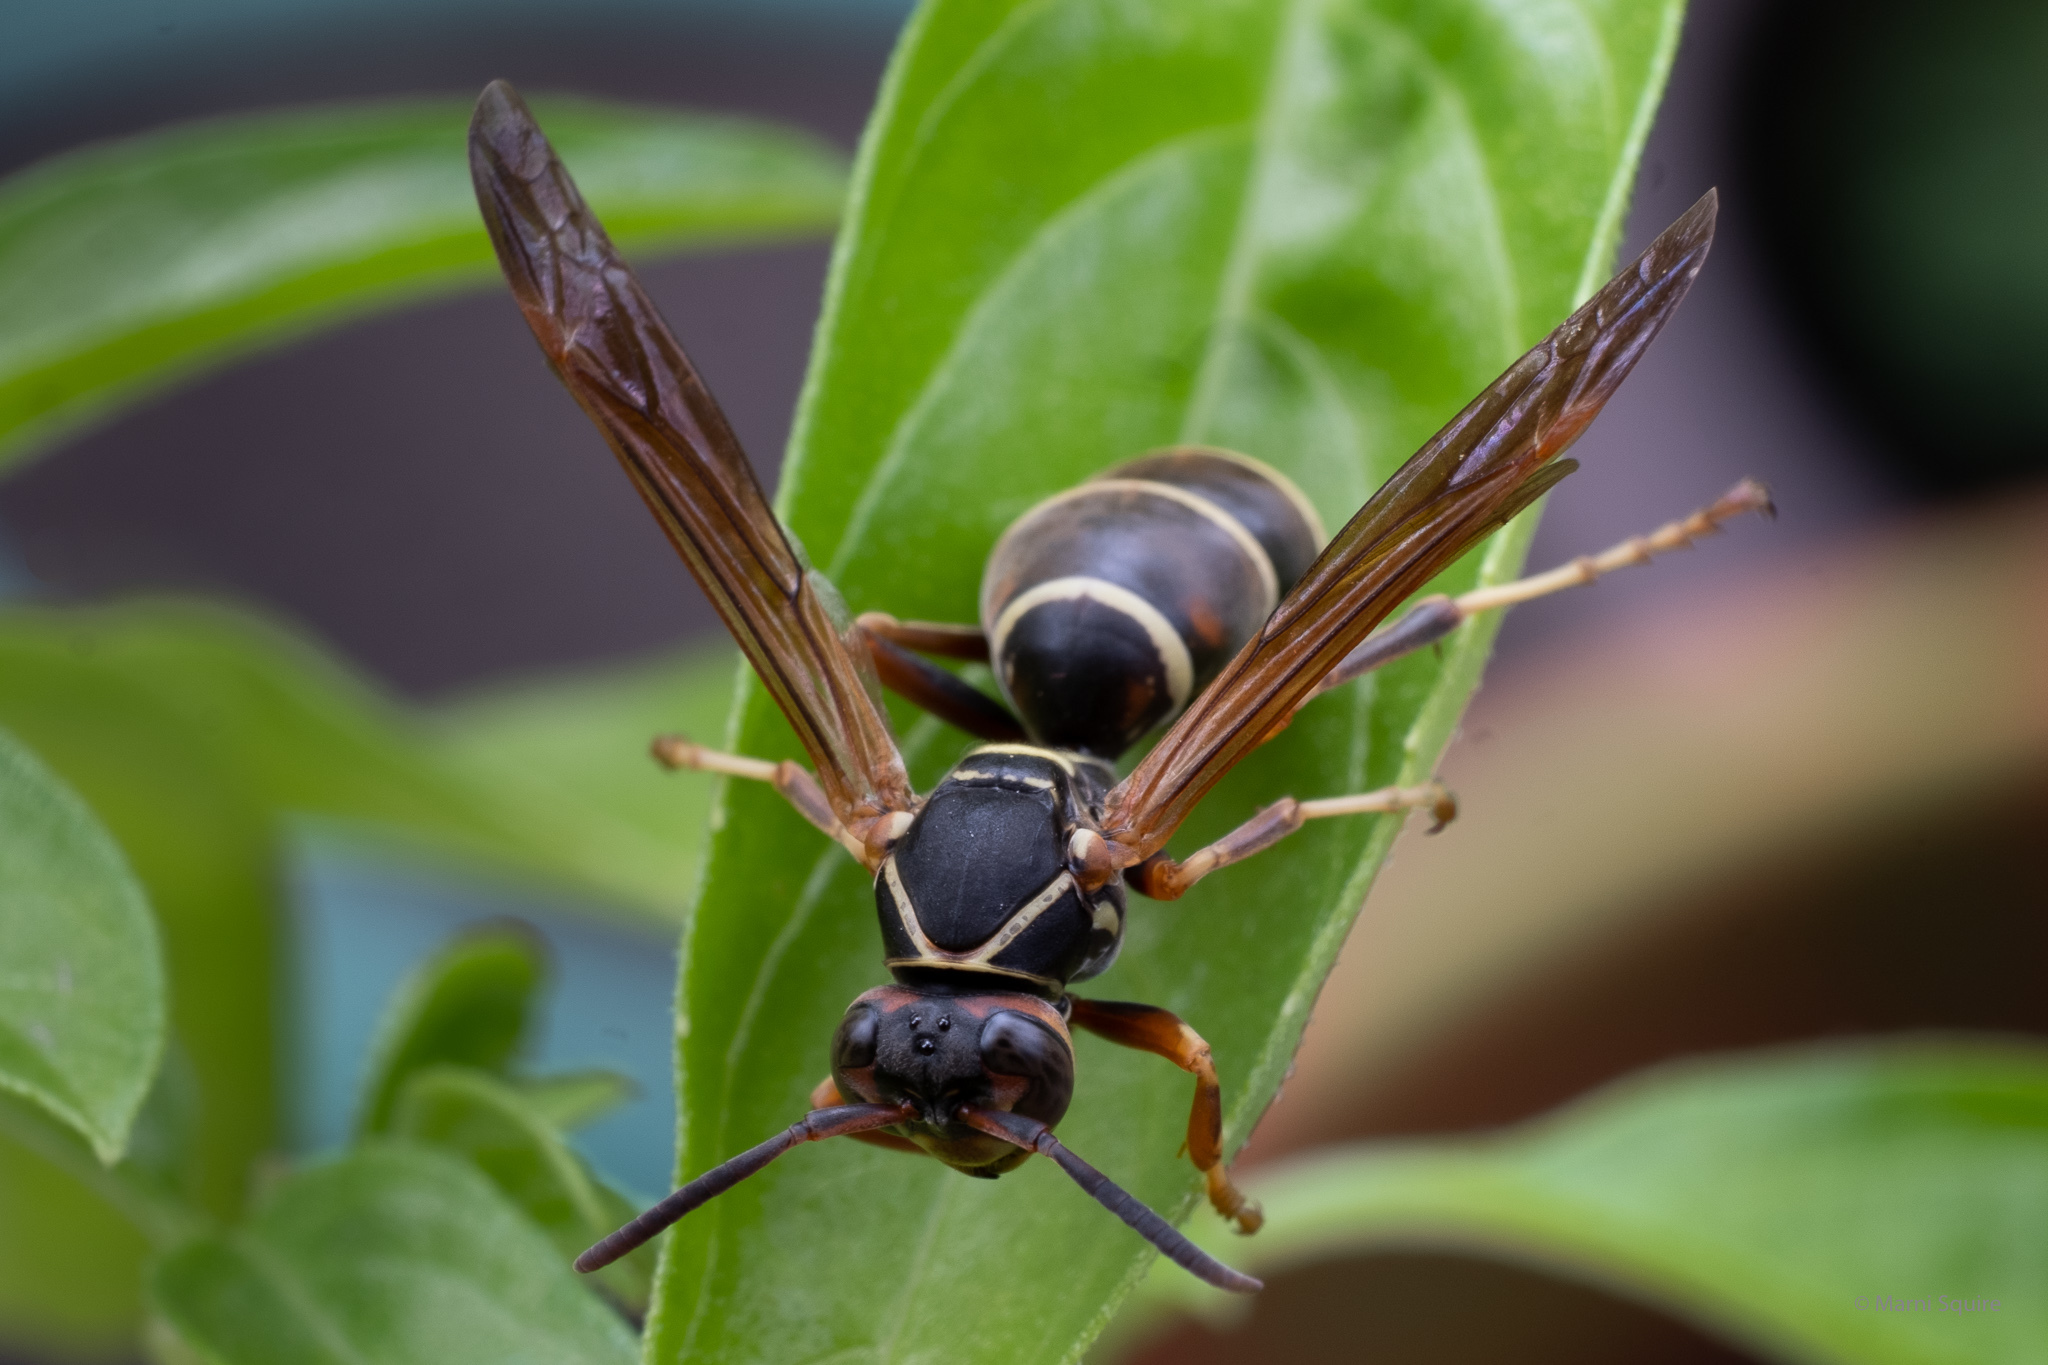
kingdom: Animalia
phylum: Arthropoda
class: Insecta
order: Hymenoptera
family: Eumenidae
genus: Polistes
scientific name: Polistes fuscatus
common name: Dark paper wasp
